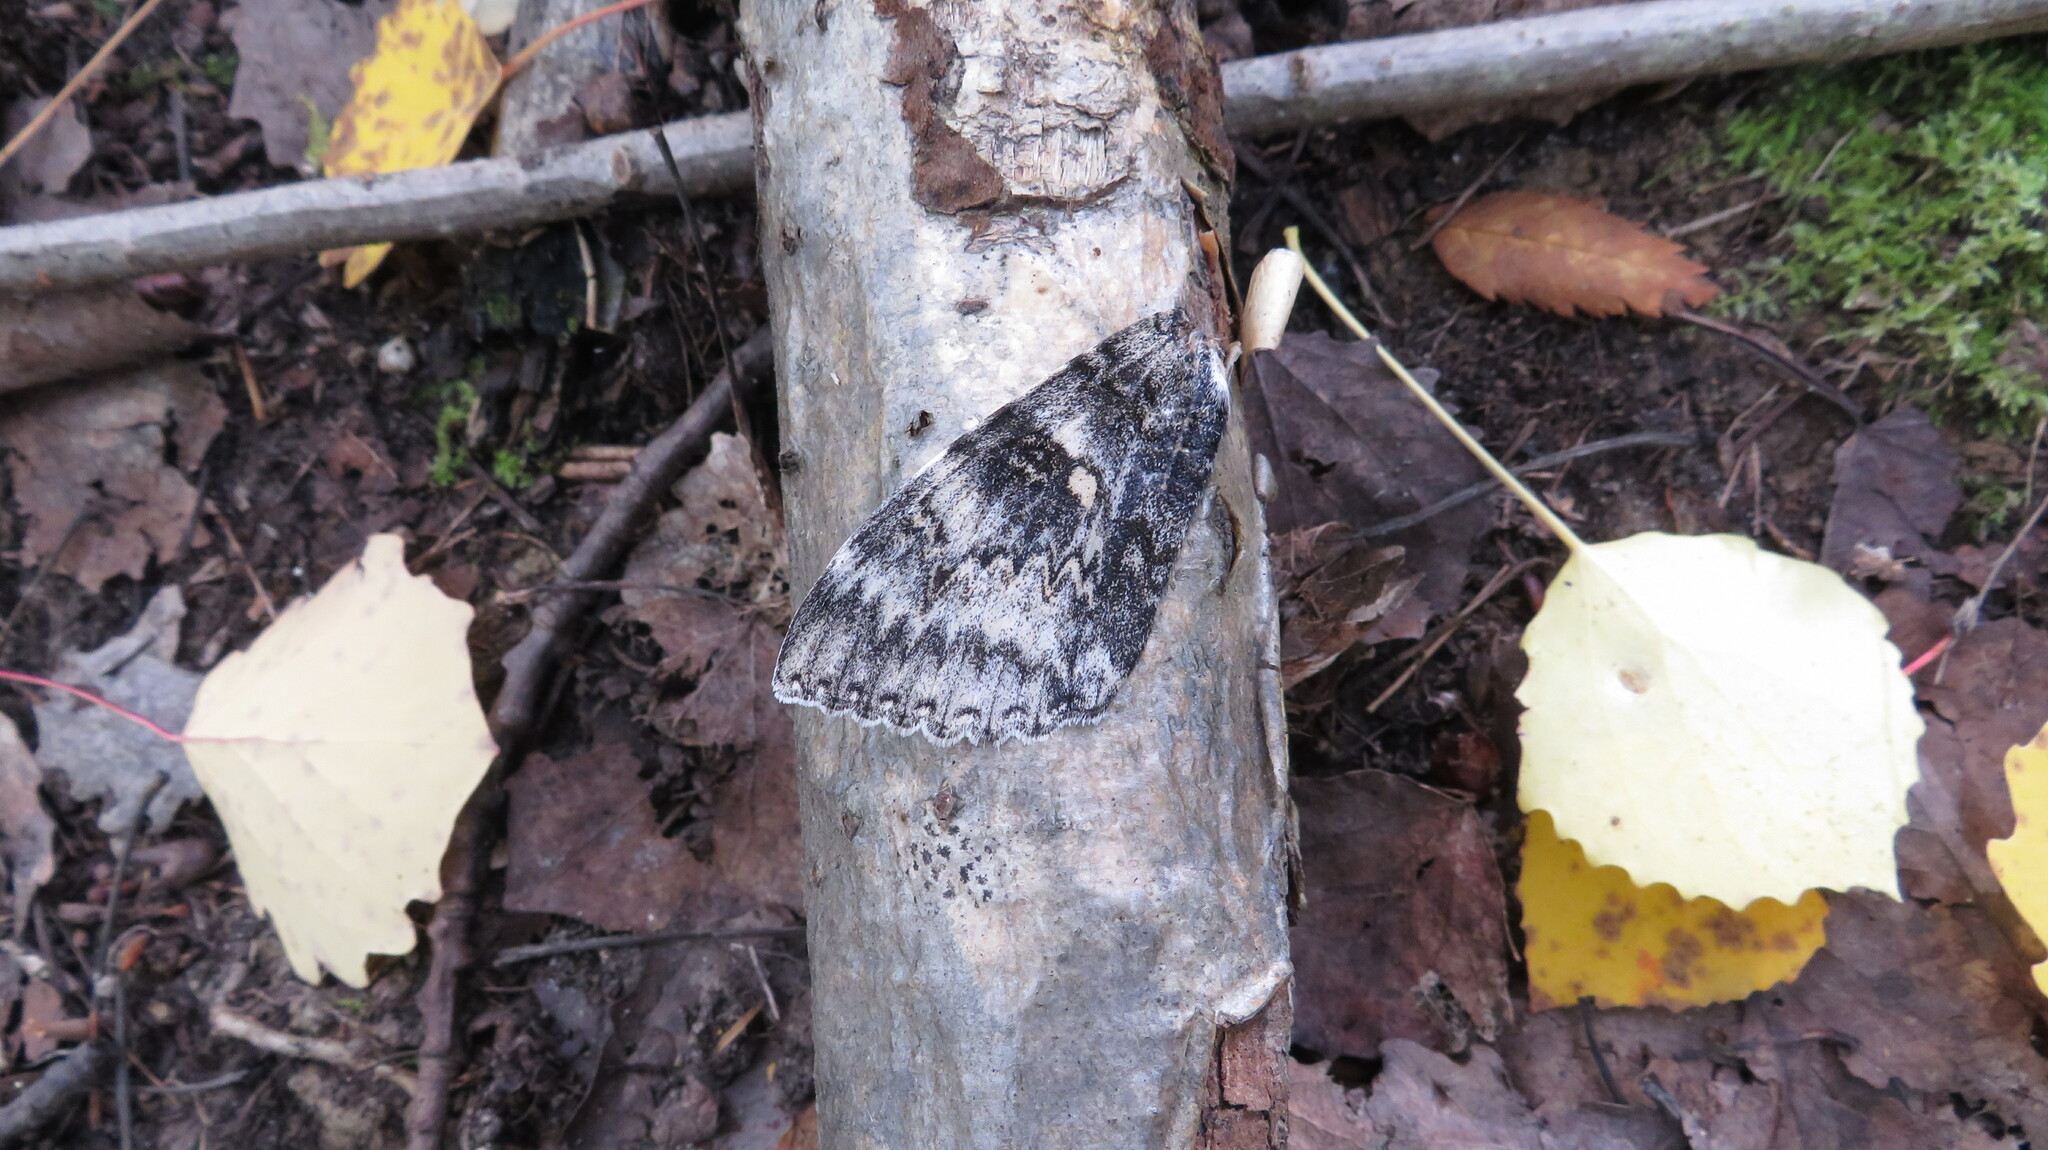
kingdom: Animalia
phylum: Arthropoda
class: Insecta
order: Lepidoptera
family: Erebidae
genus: Catocala
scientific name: Catocala fraxini
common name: Clifden nonpareil
